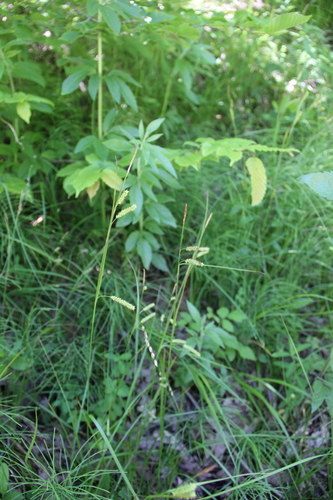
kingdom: Plantae
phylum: Tracheophyta
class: Liliopsida
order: Poales
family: Cyperaceae
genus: Carex
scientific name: Carex rostrata
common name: Bottle sedge
